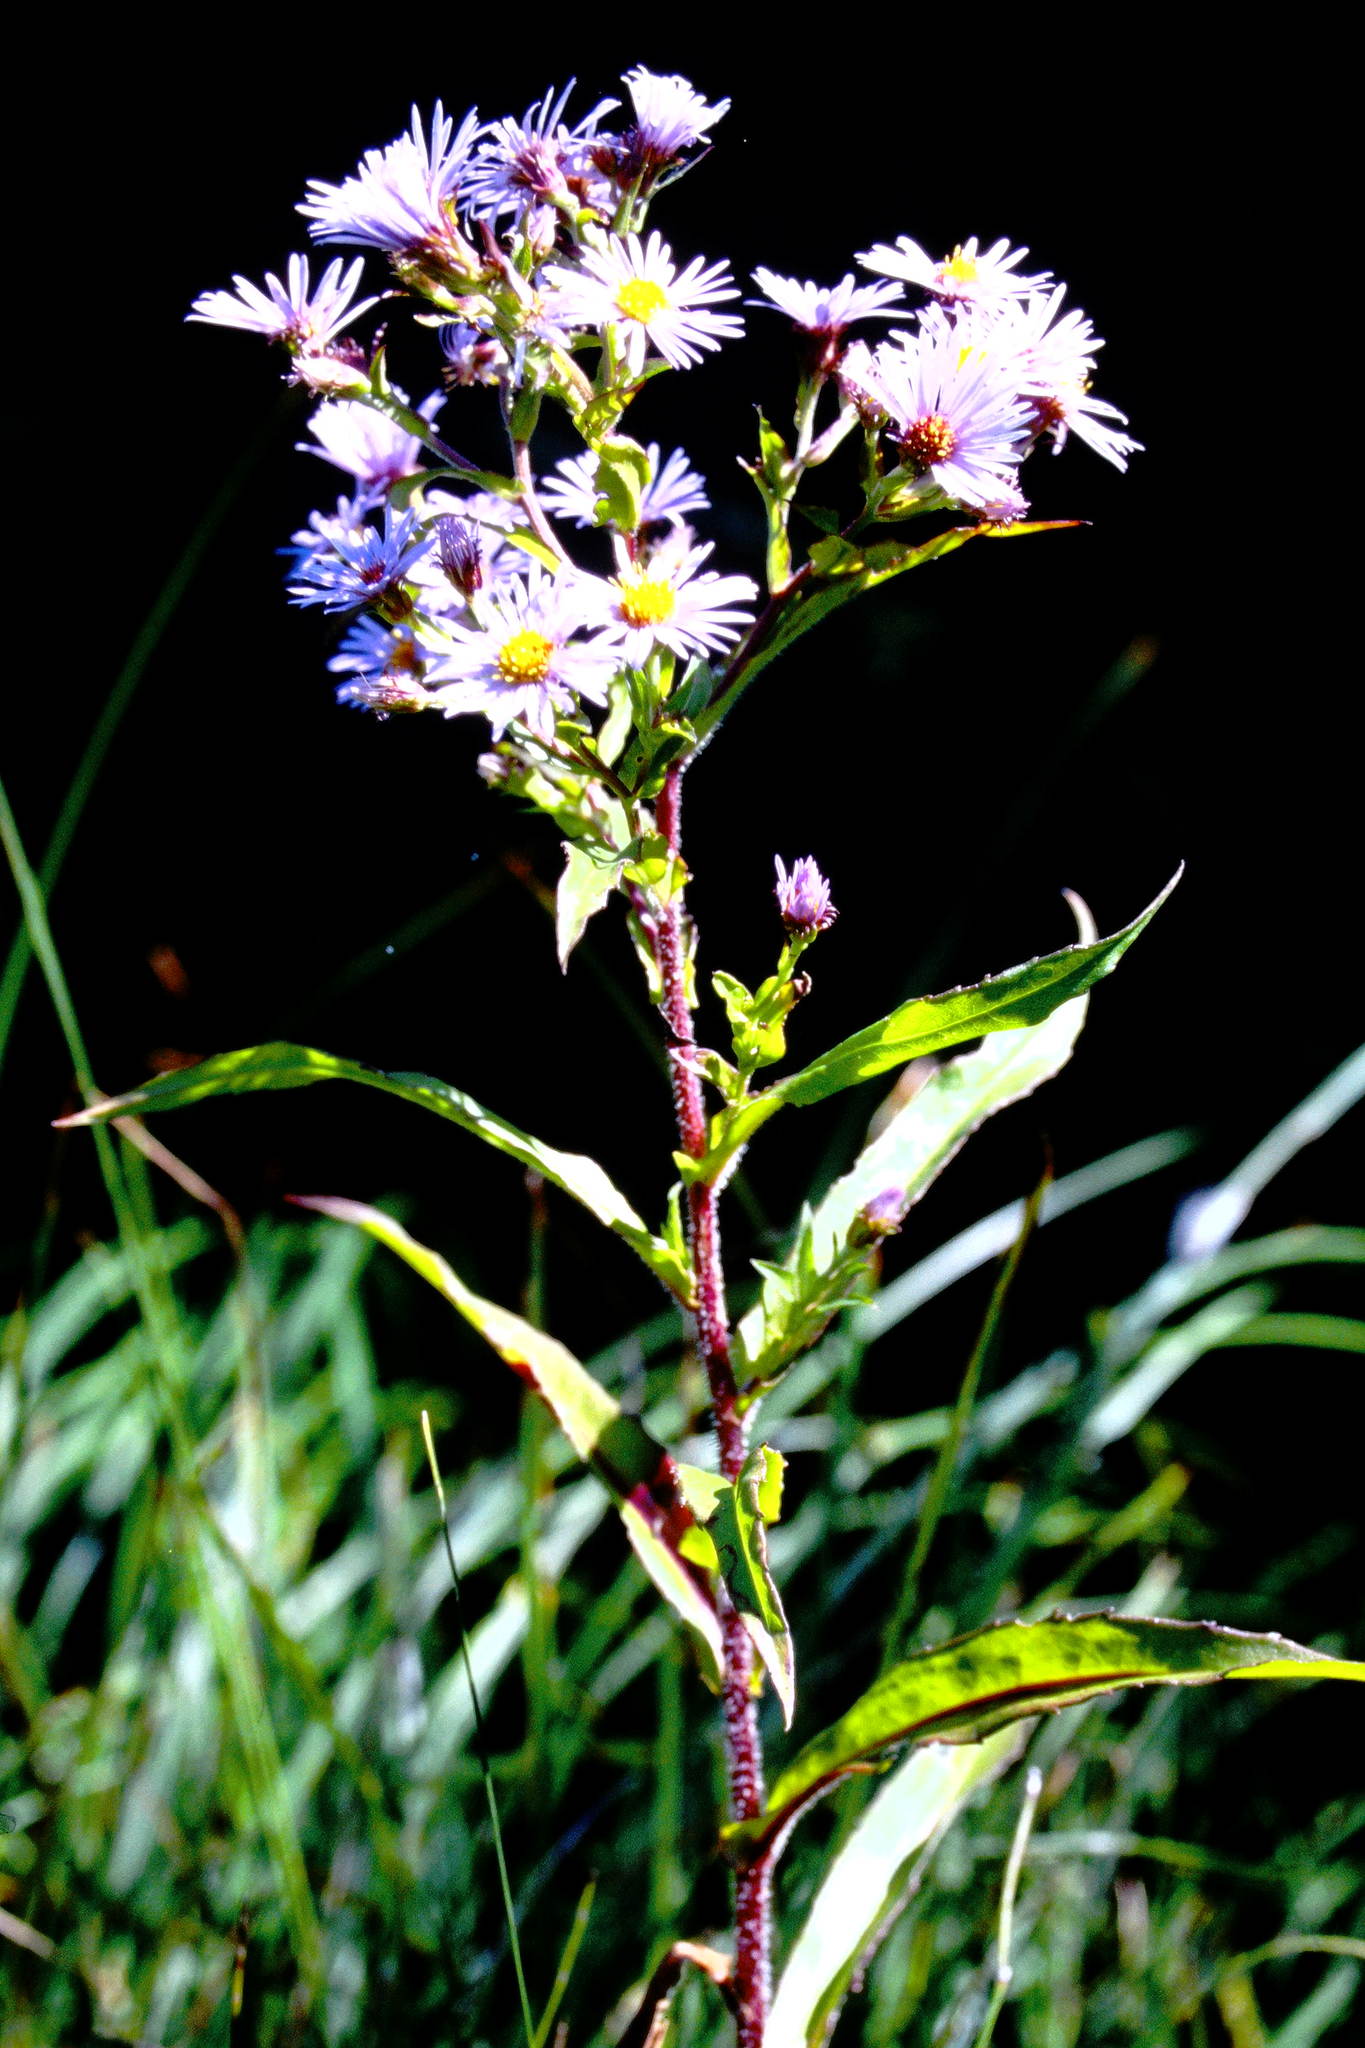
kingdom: Plantae
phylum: Tracheophyta
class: Magnoliopsida
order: Asterales
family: Asteraceae
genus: Symphyotrichum
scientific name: Symphyotrichum puniceum
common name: Bog aster
